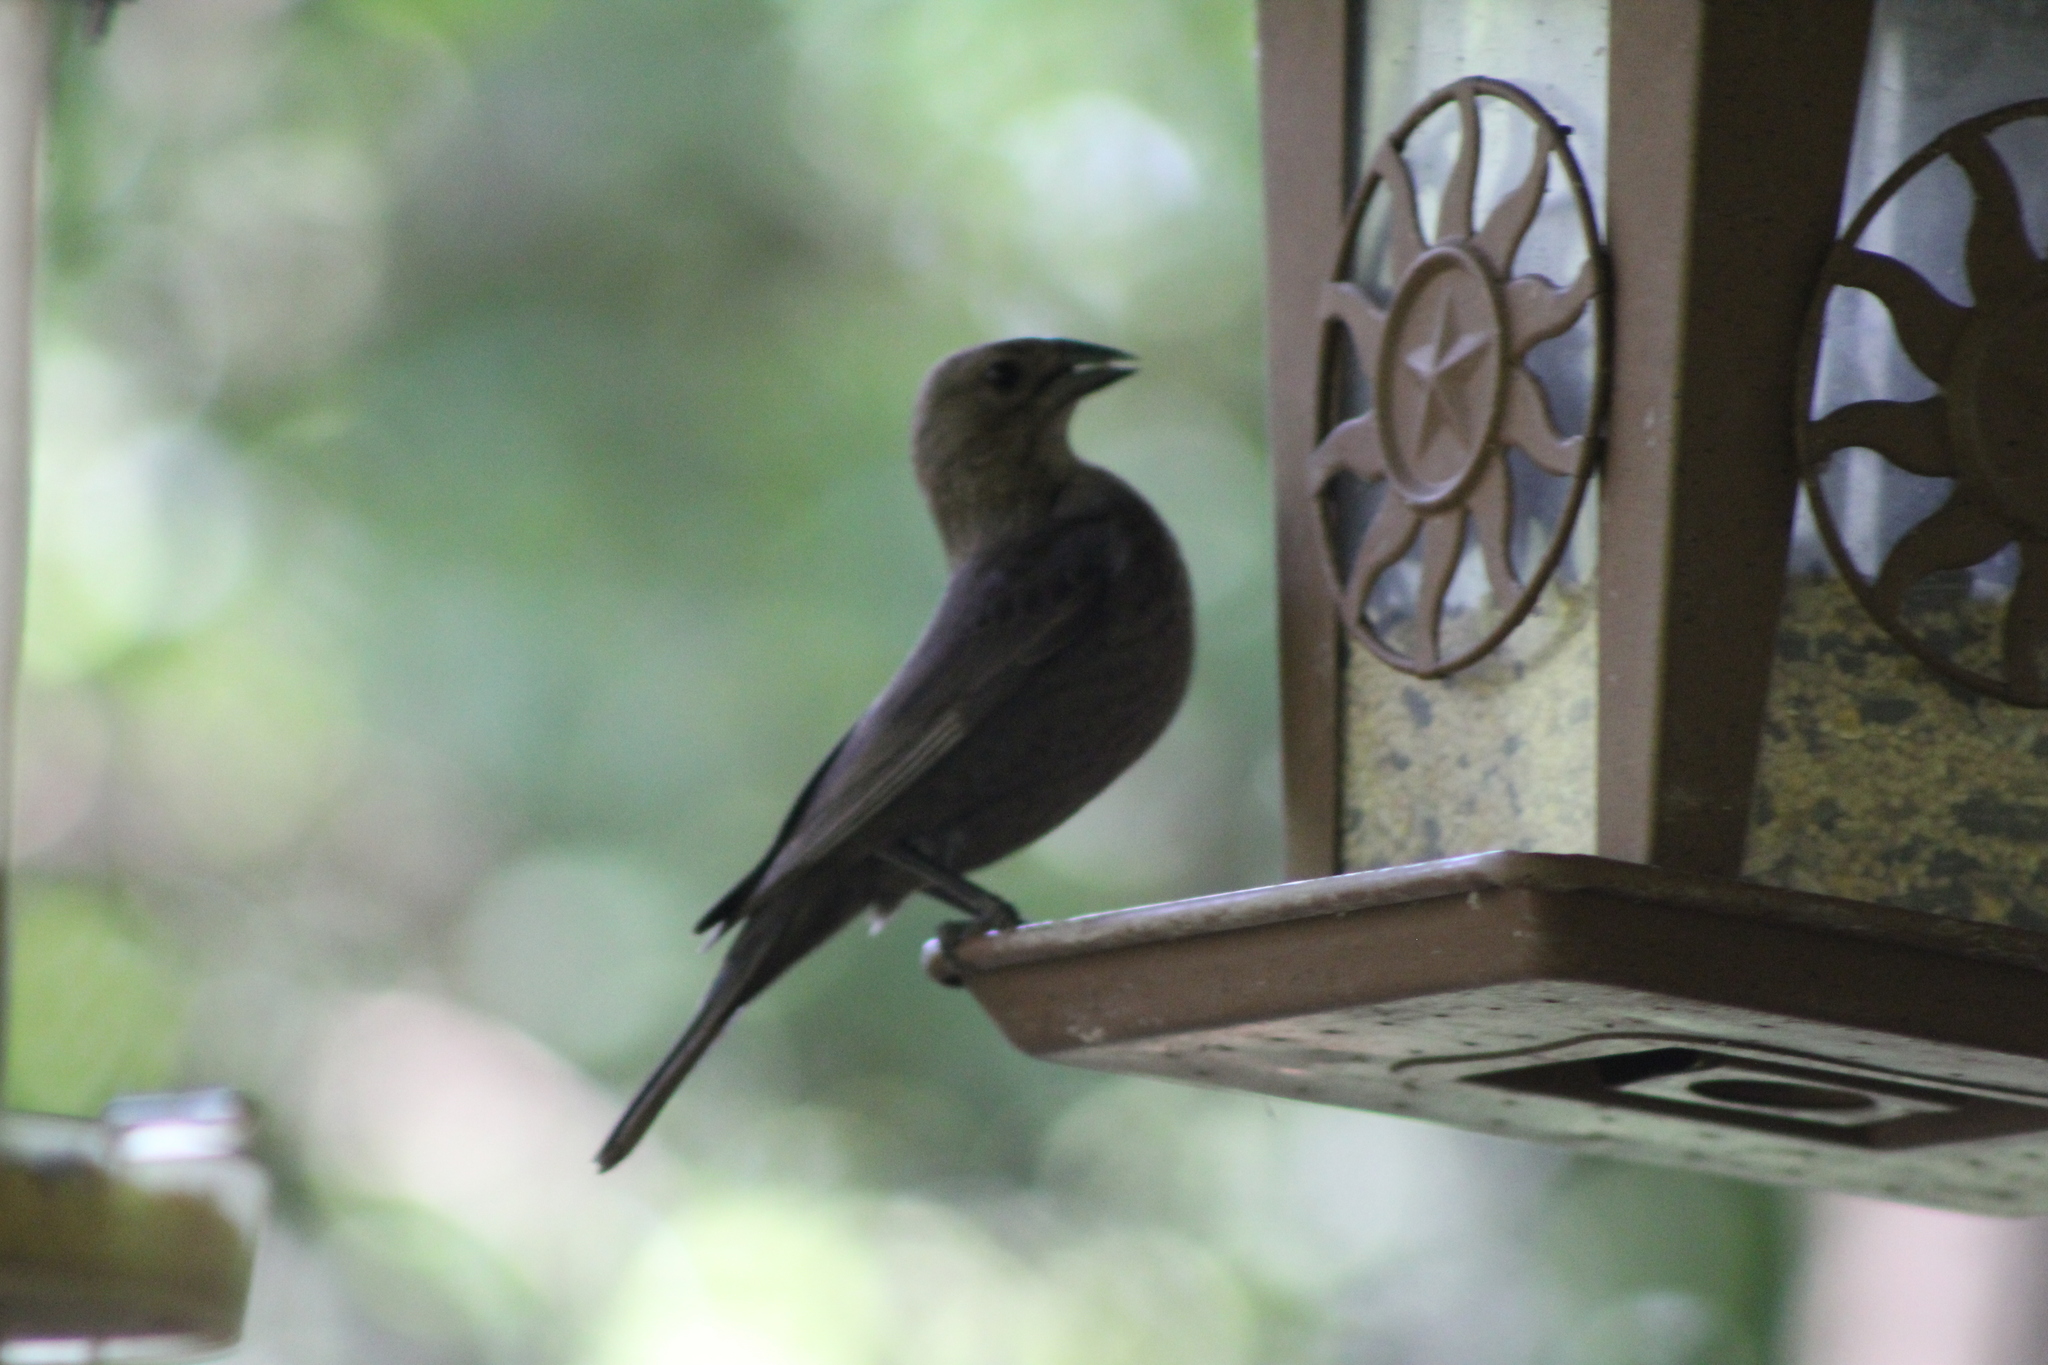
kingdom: Animalia
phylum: Chordata
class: Aves
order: Passeriformes
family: Icteridae
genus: Molothrus
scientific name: Molothrus ater
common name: Brown-headed cowbird
